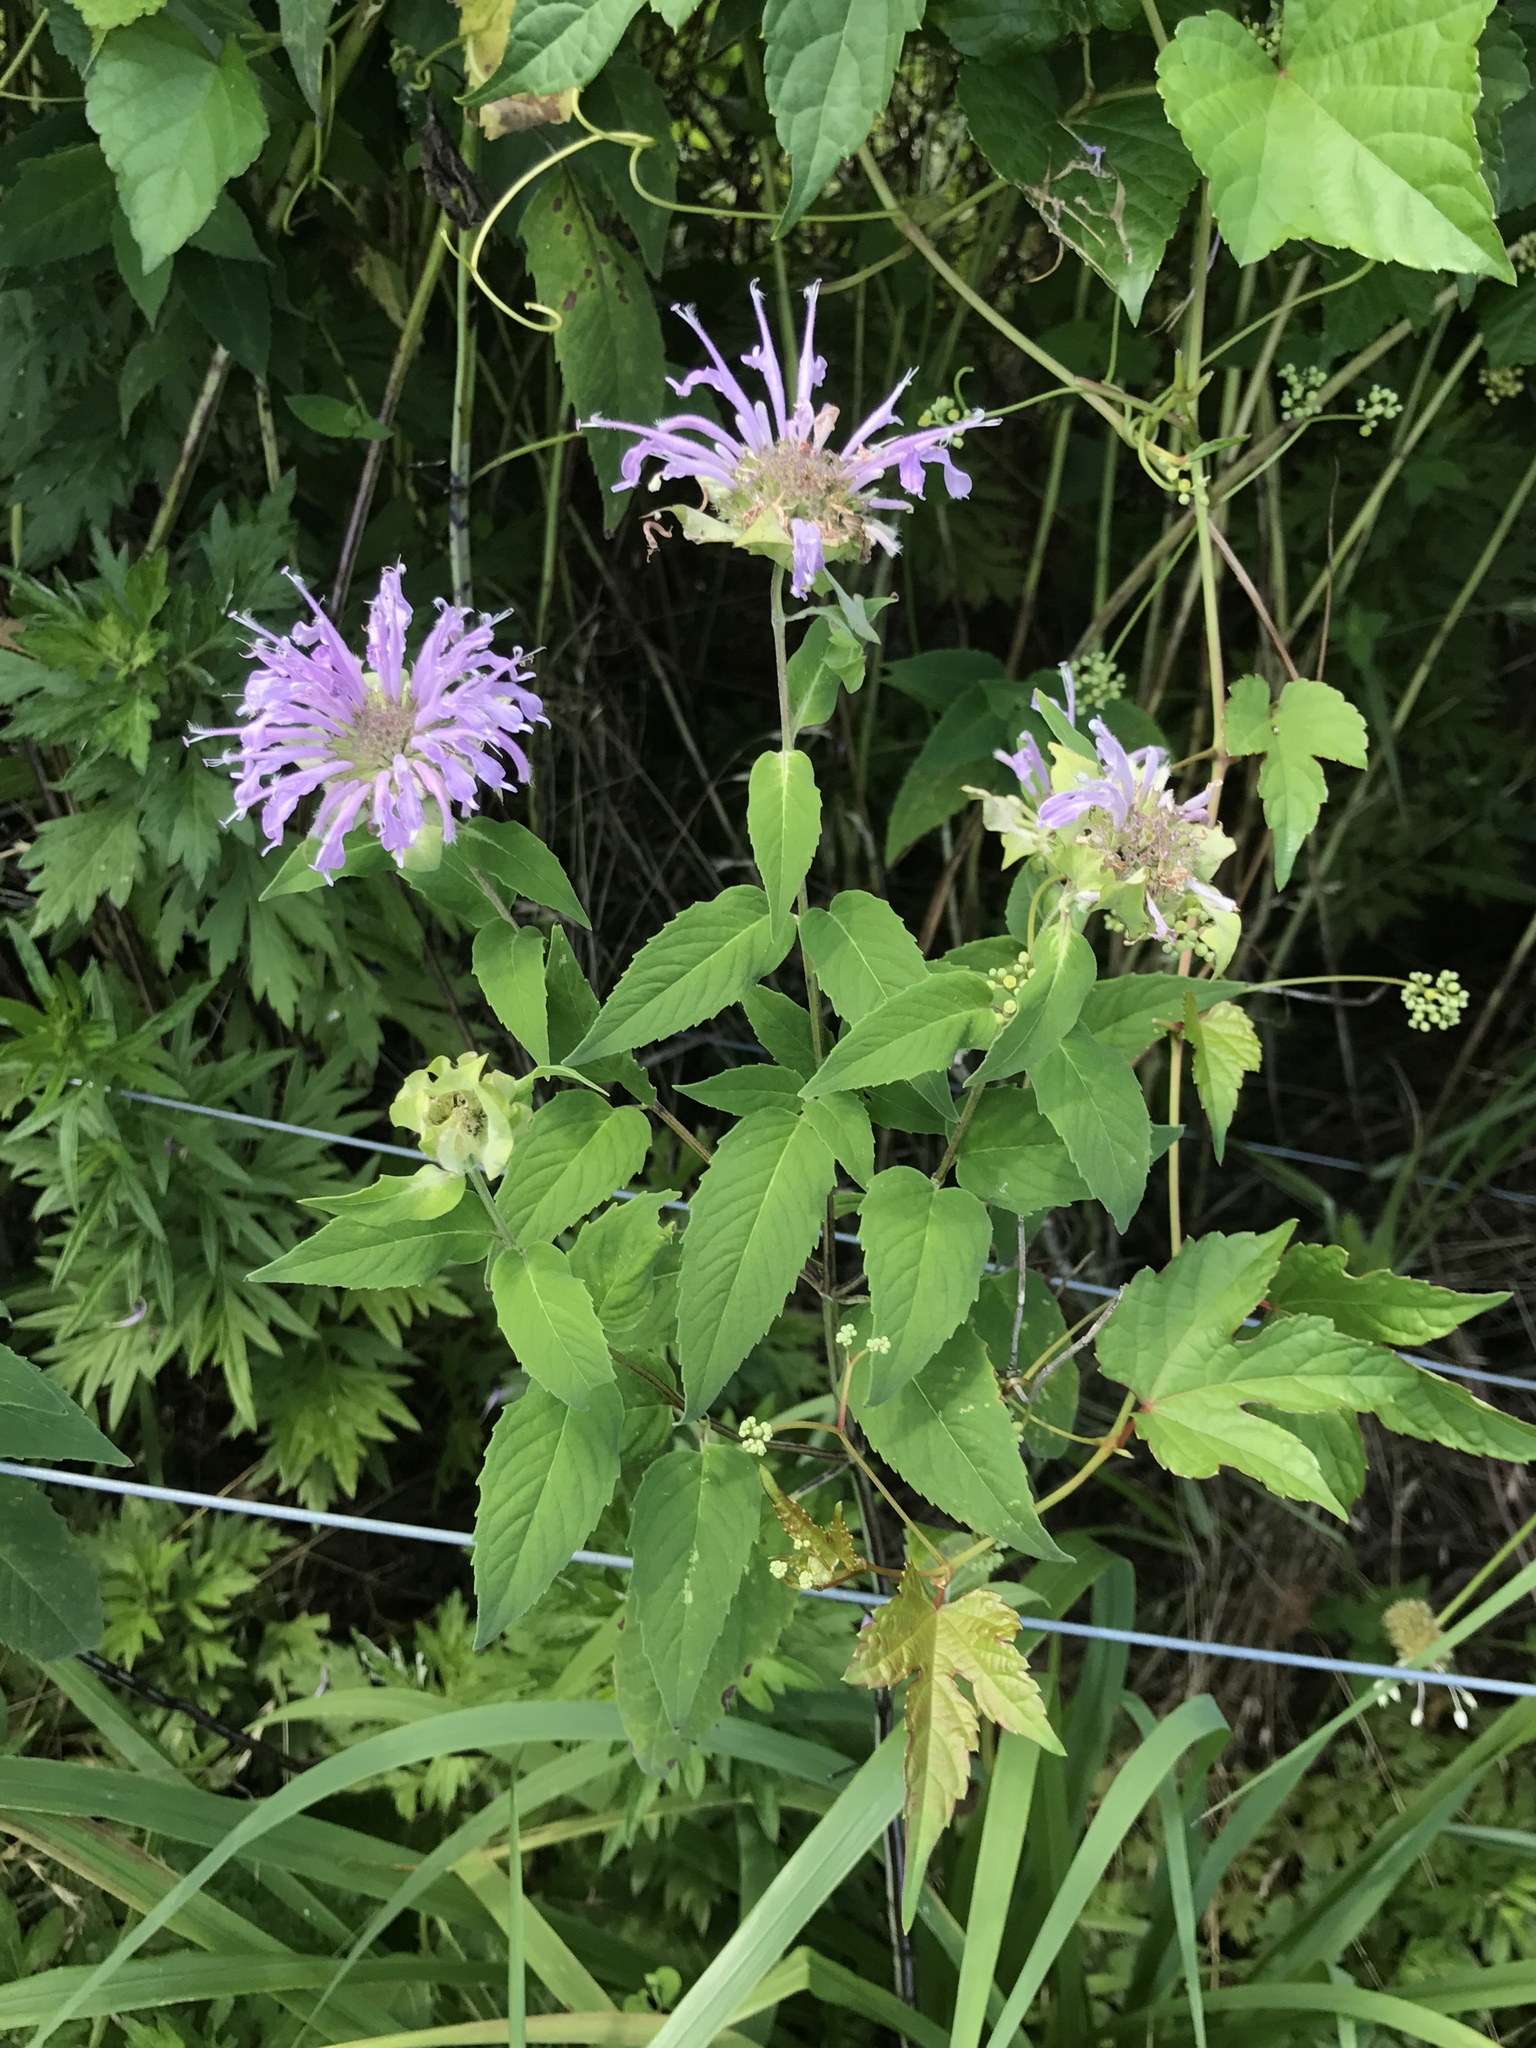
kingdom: Plantae
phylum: Tracheophyta
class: Magnoliopsida
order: Lamiales
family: Lamiaceae
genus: Monarda
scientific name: Monarda fistulosa
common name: Purple beebalm
